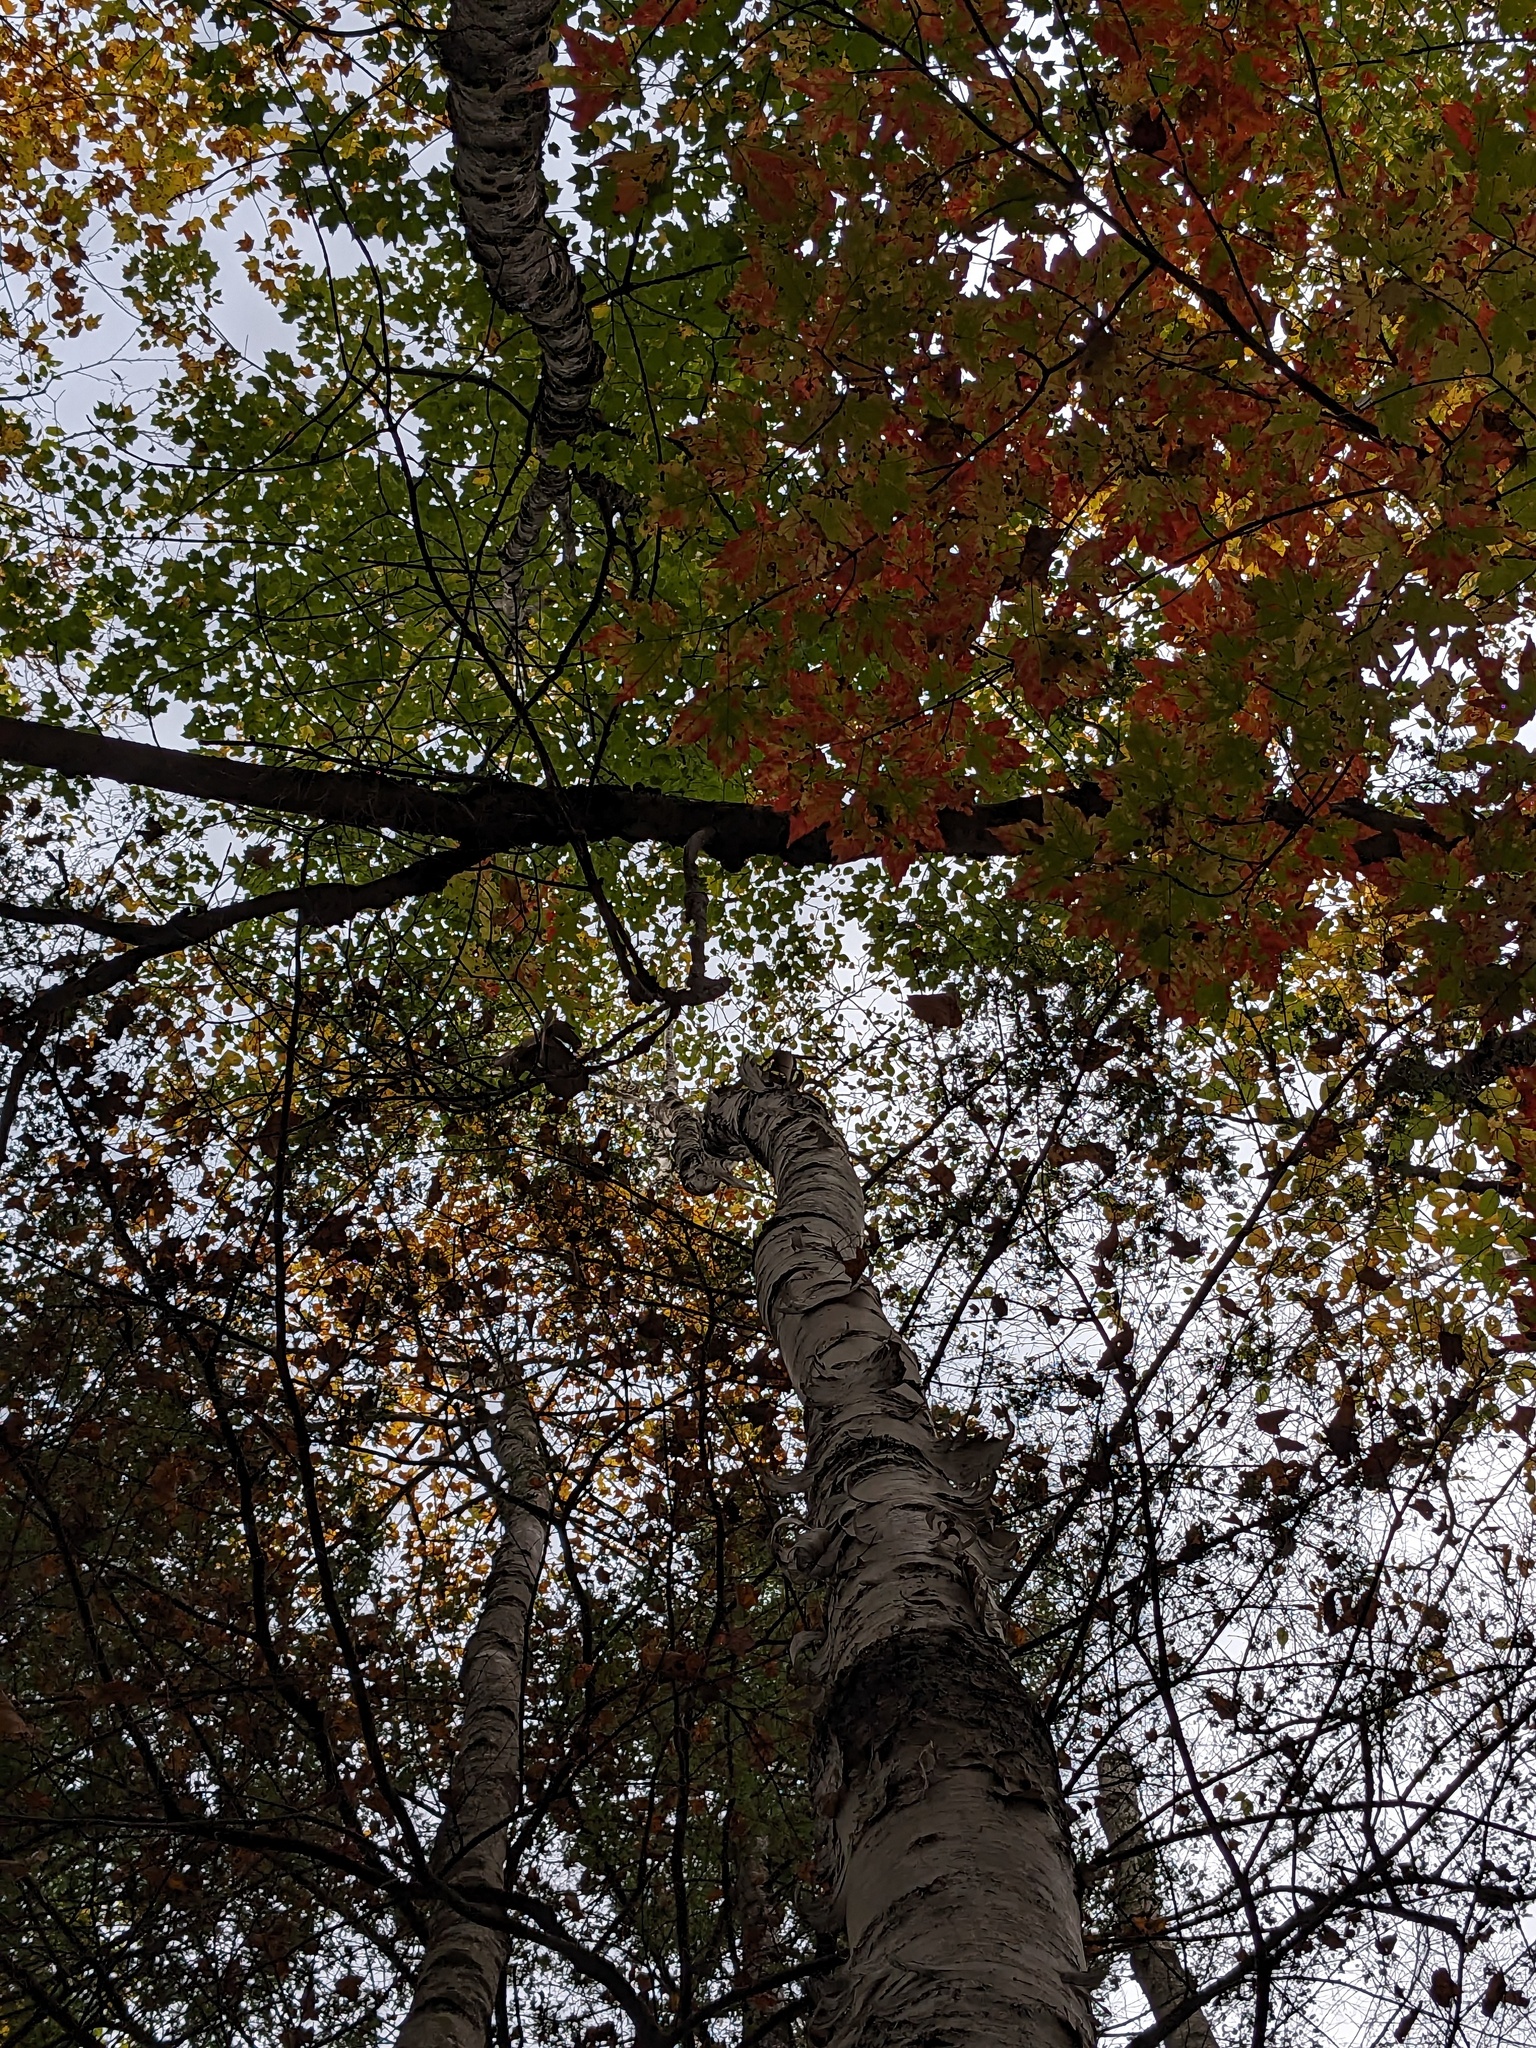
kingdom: Plantae
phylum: Tracheophyta
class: Magnoliopsida
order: Fagales
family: Betulaceae
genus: Betula
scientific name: Betula papyrifera
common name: Paper birch
